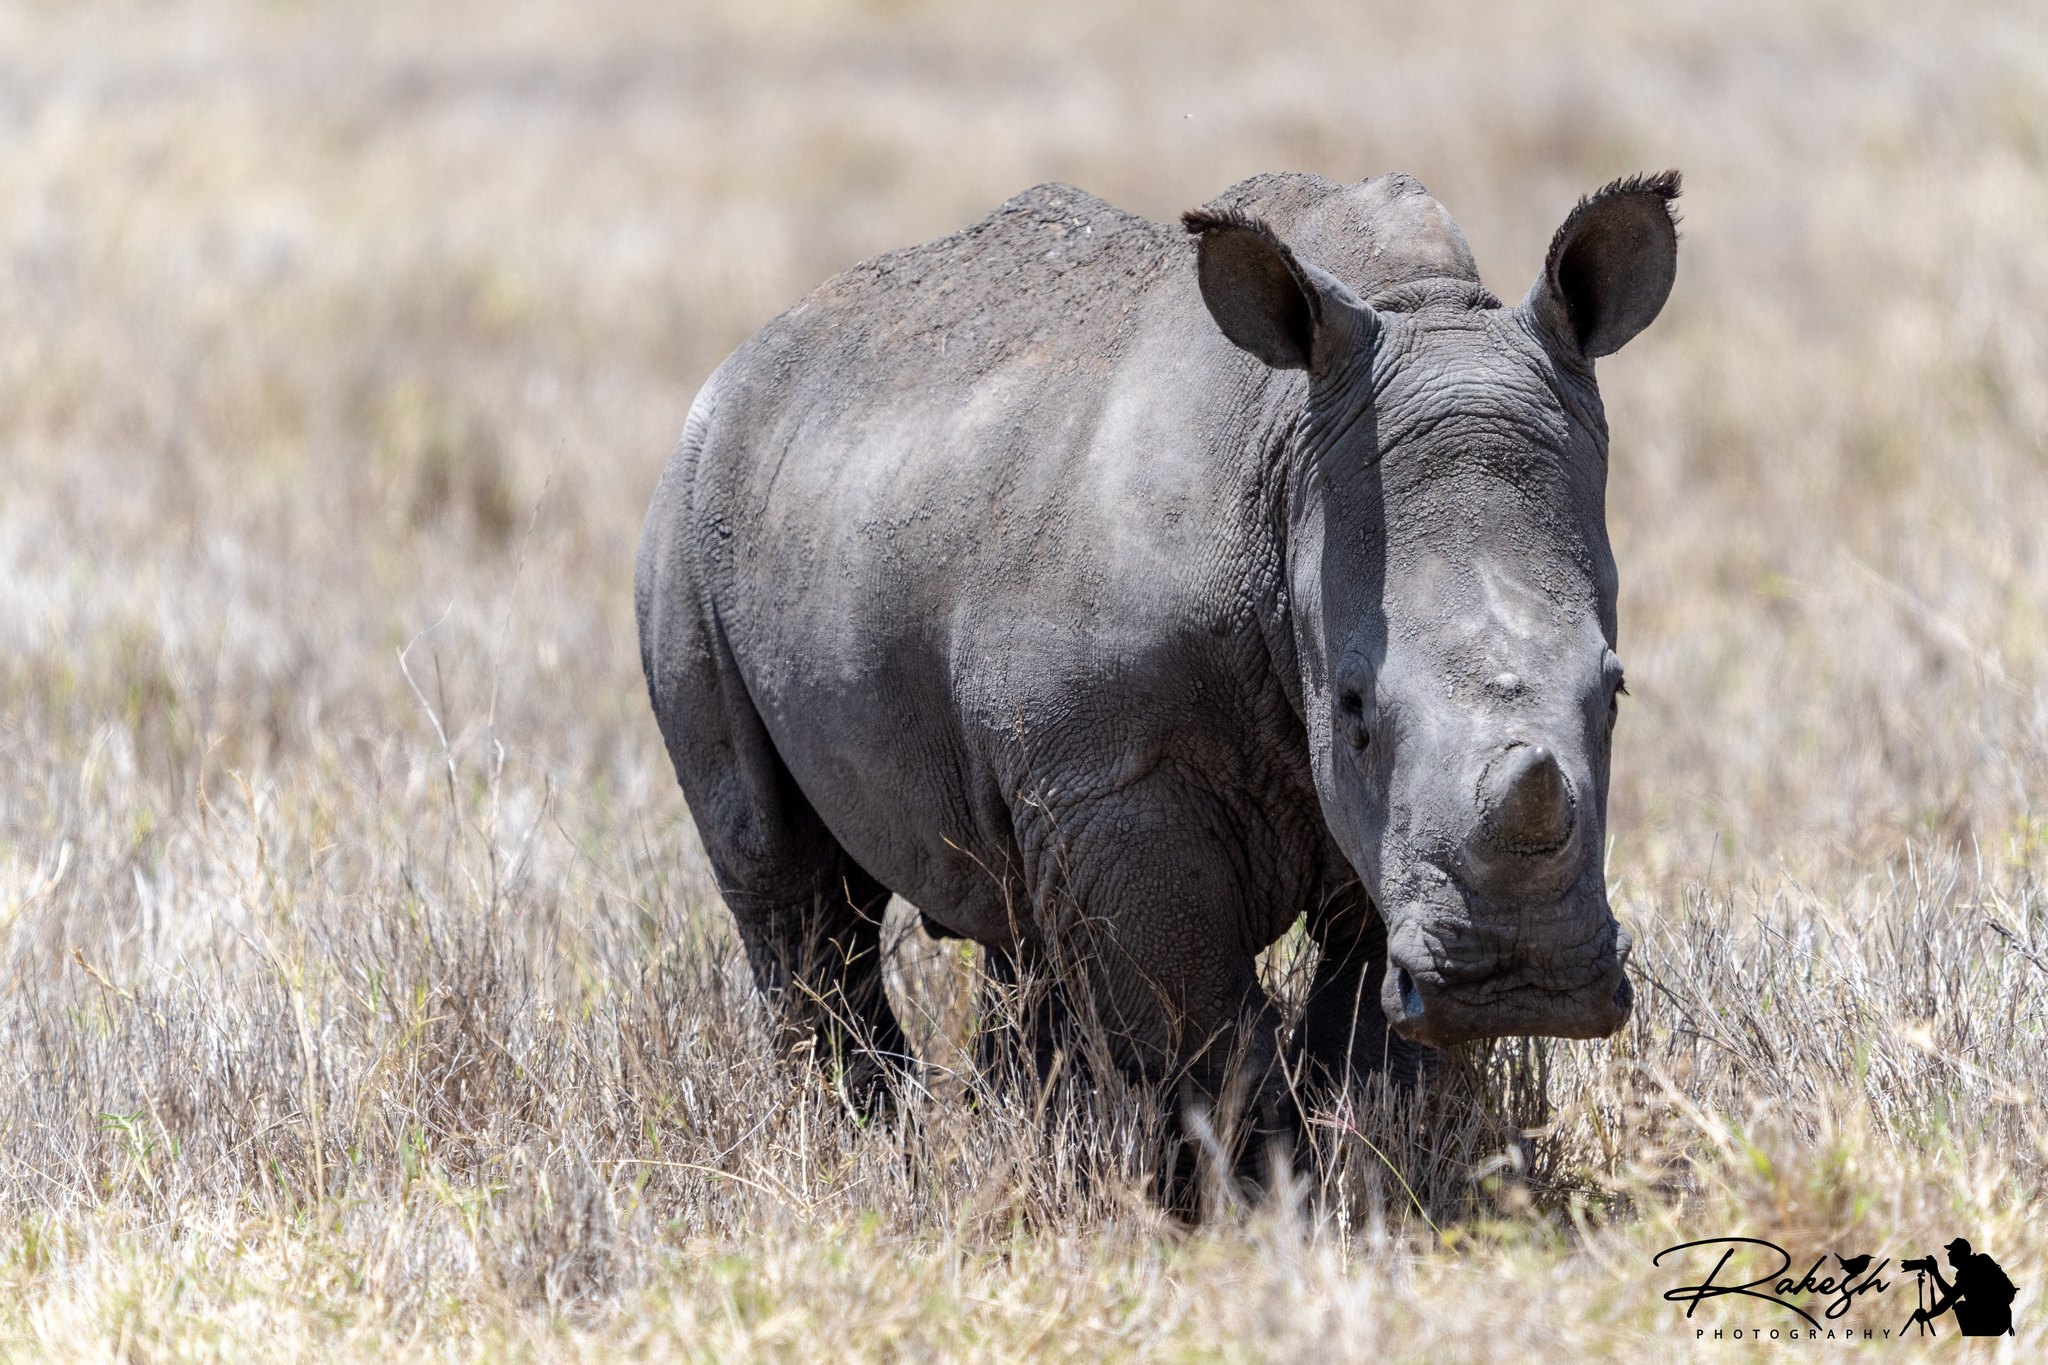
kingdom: Animalia
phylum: Chordata
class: Mammalia
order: Perissodactyla
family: Rhinocerotidae
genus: Ceratotherium
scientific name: Ceratotherium simum
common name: White rhinoceros
